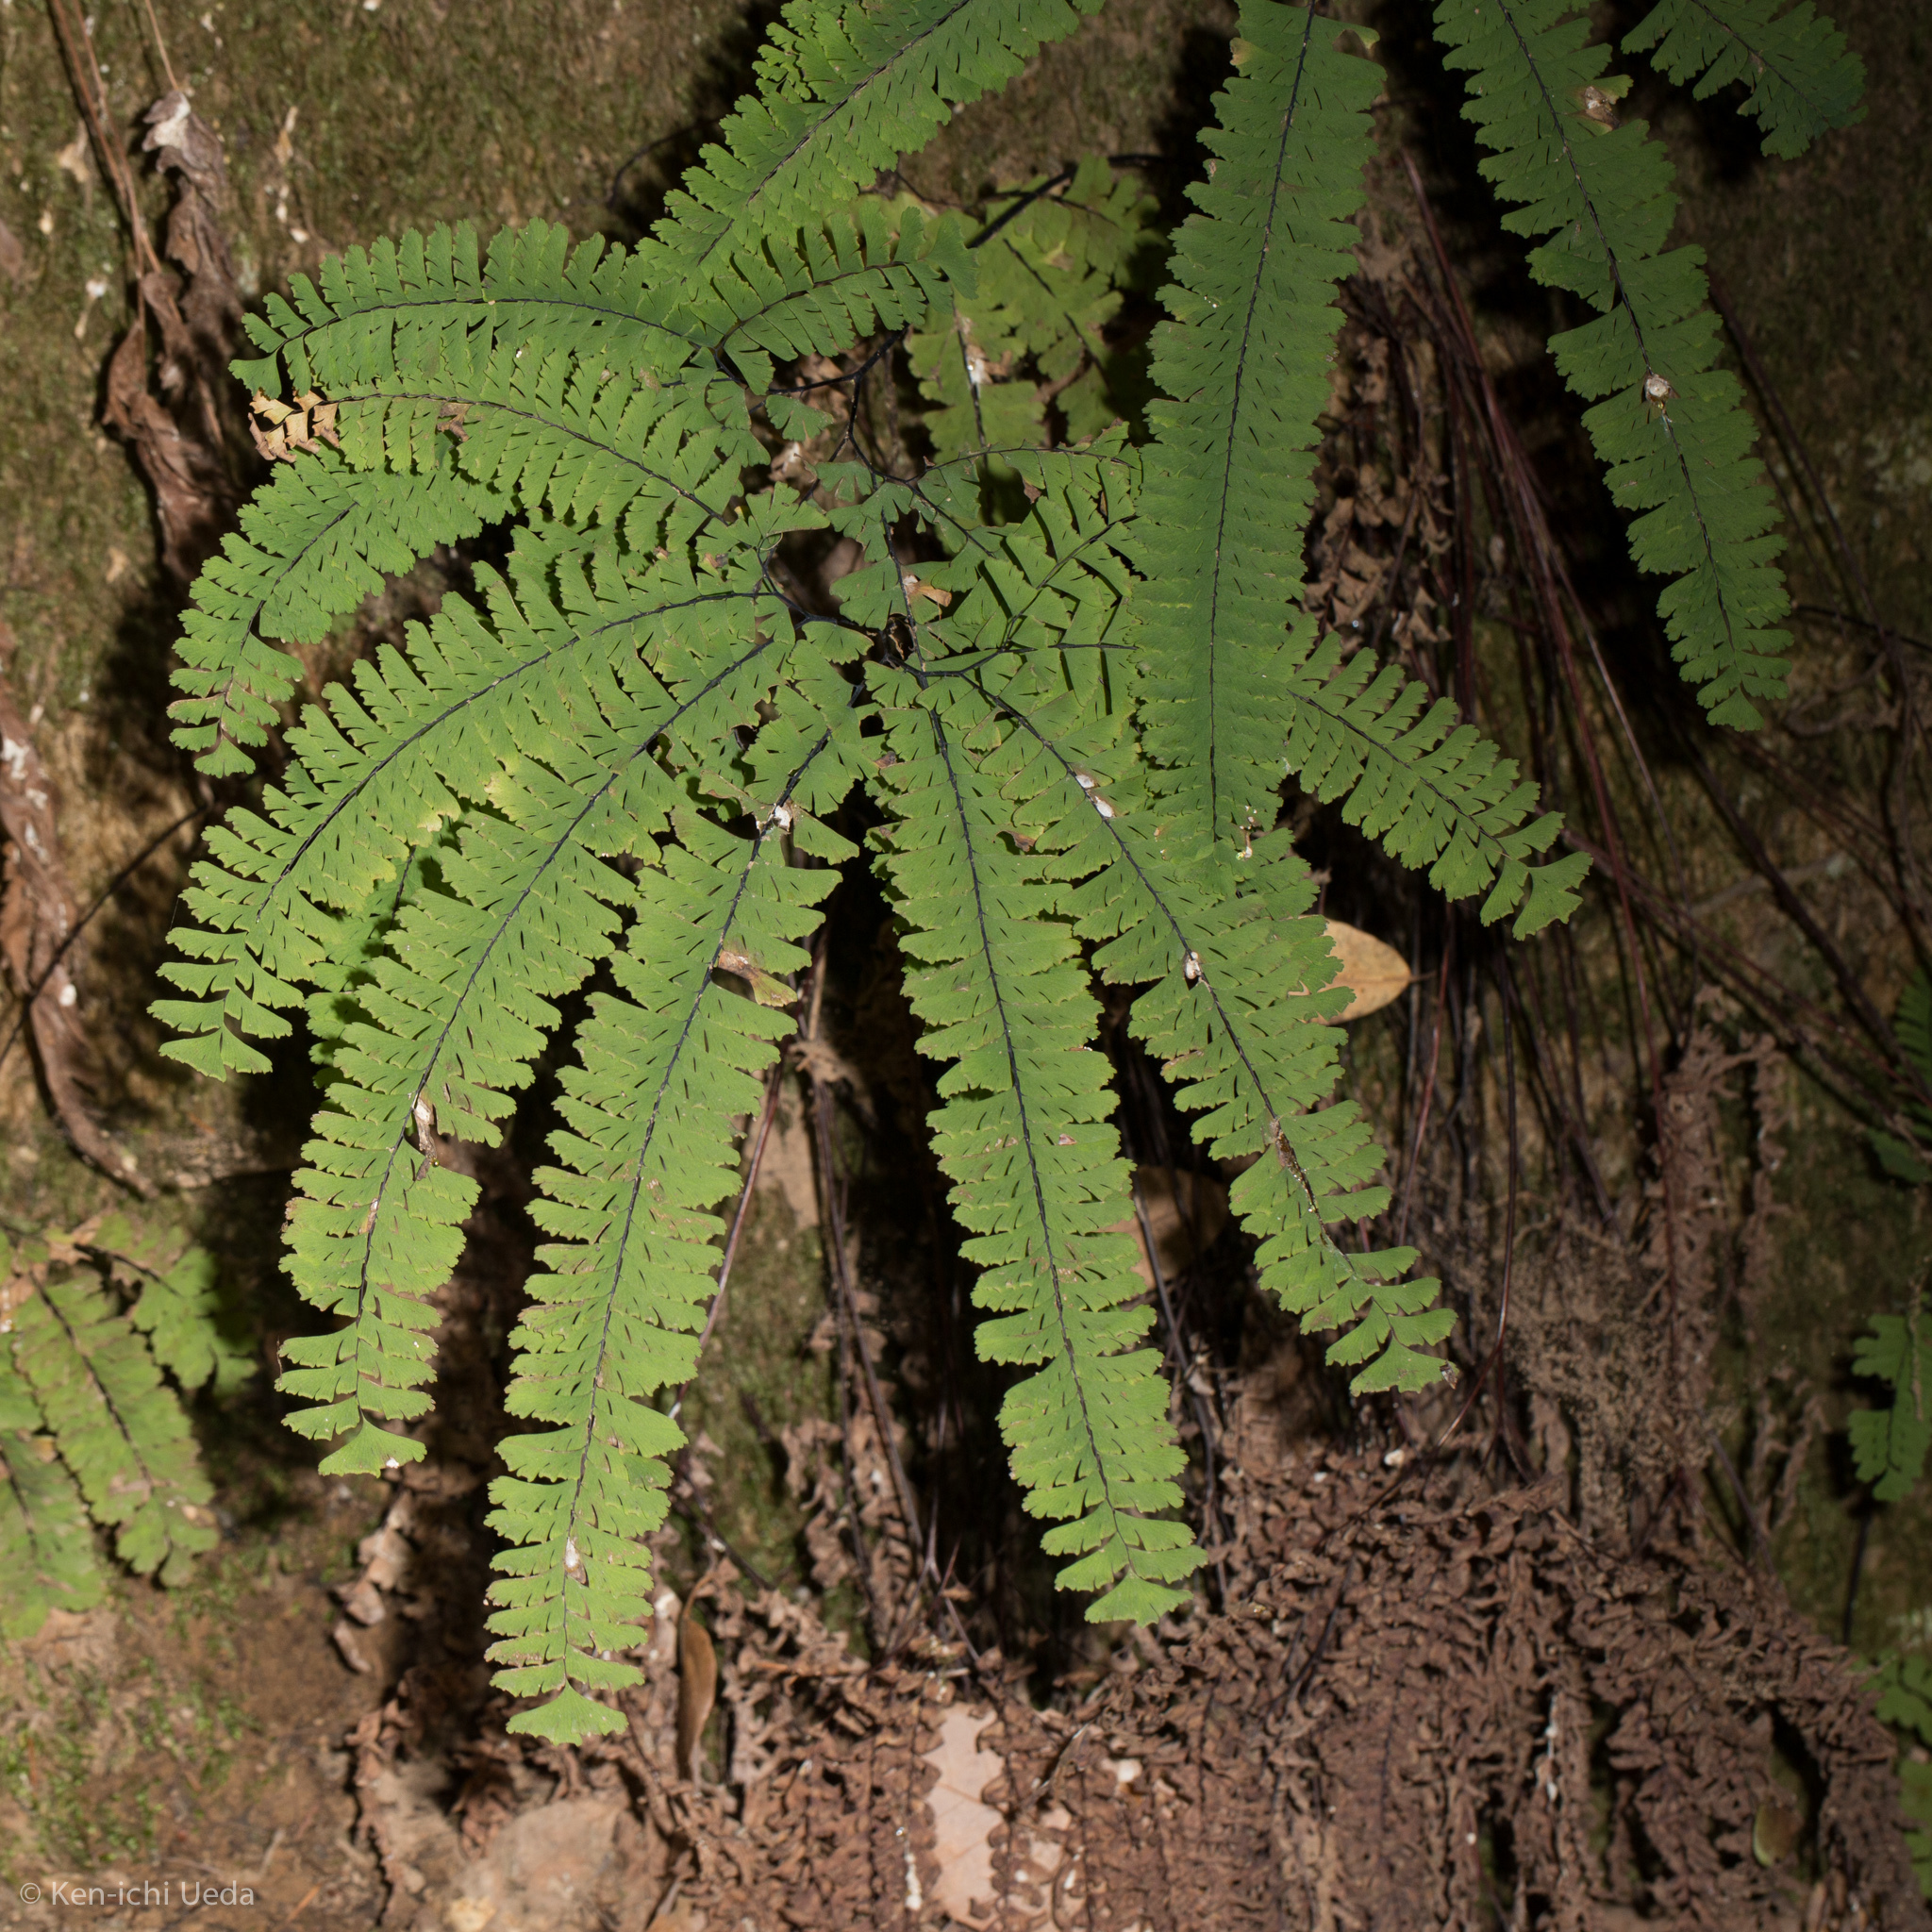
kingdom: Plantae
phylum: Tracheophyta
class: Polypodiopsida
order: Polypodiales
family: Pteridaceae
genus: Adiantum
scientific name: Adiantum aleuticum
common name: Aleutian maidenhair fern
